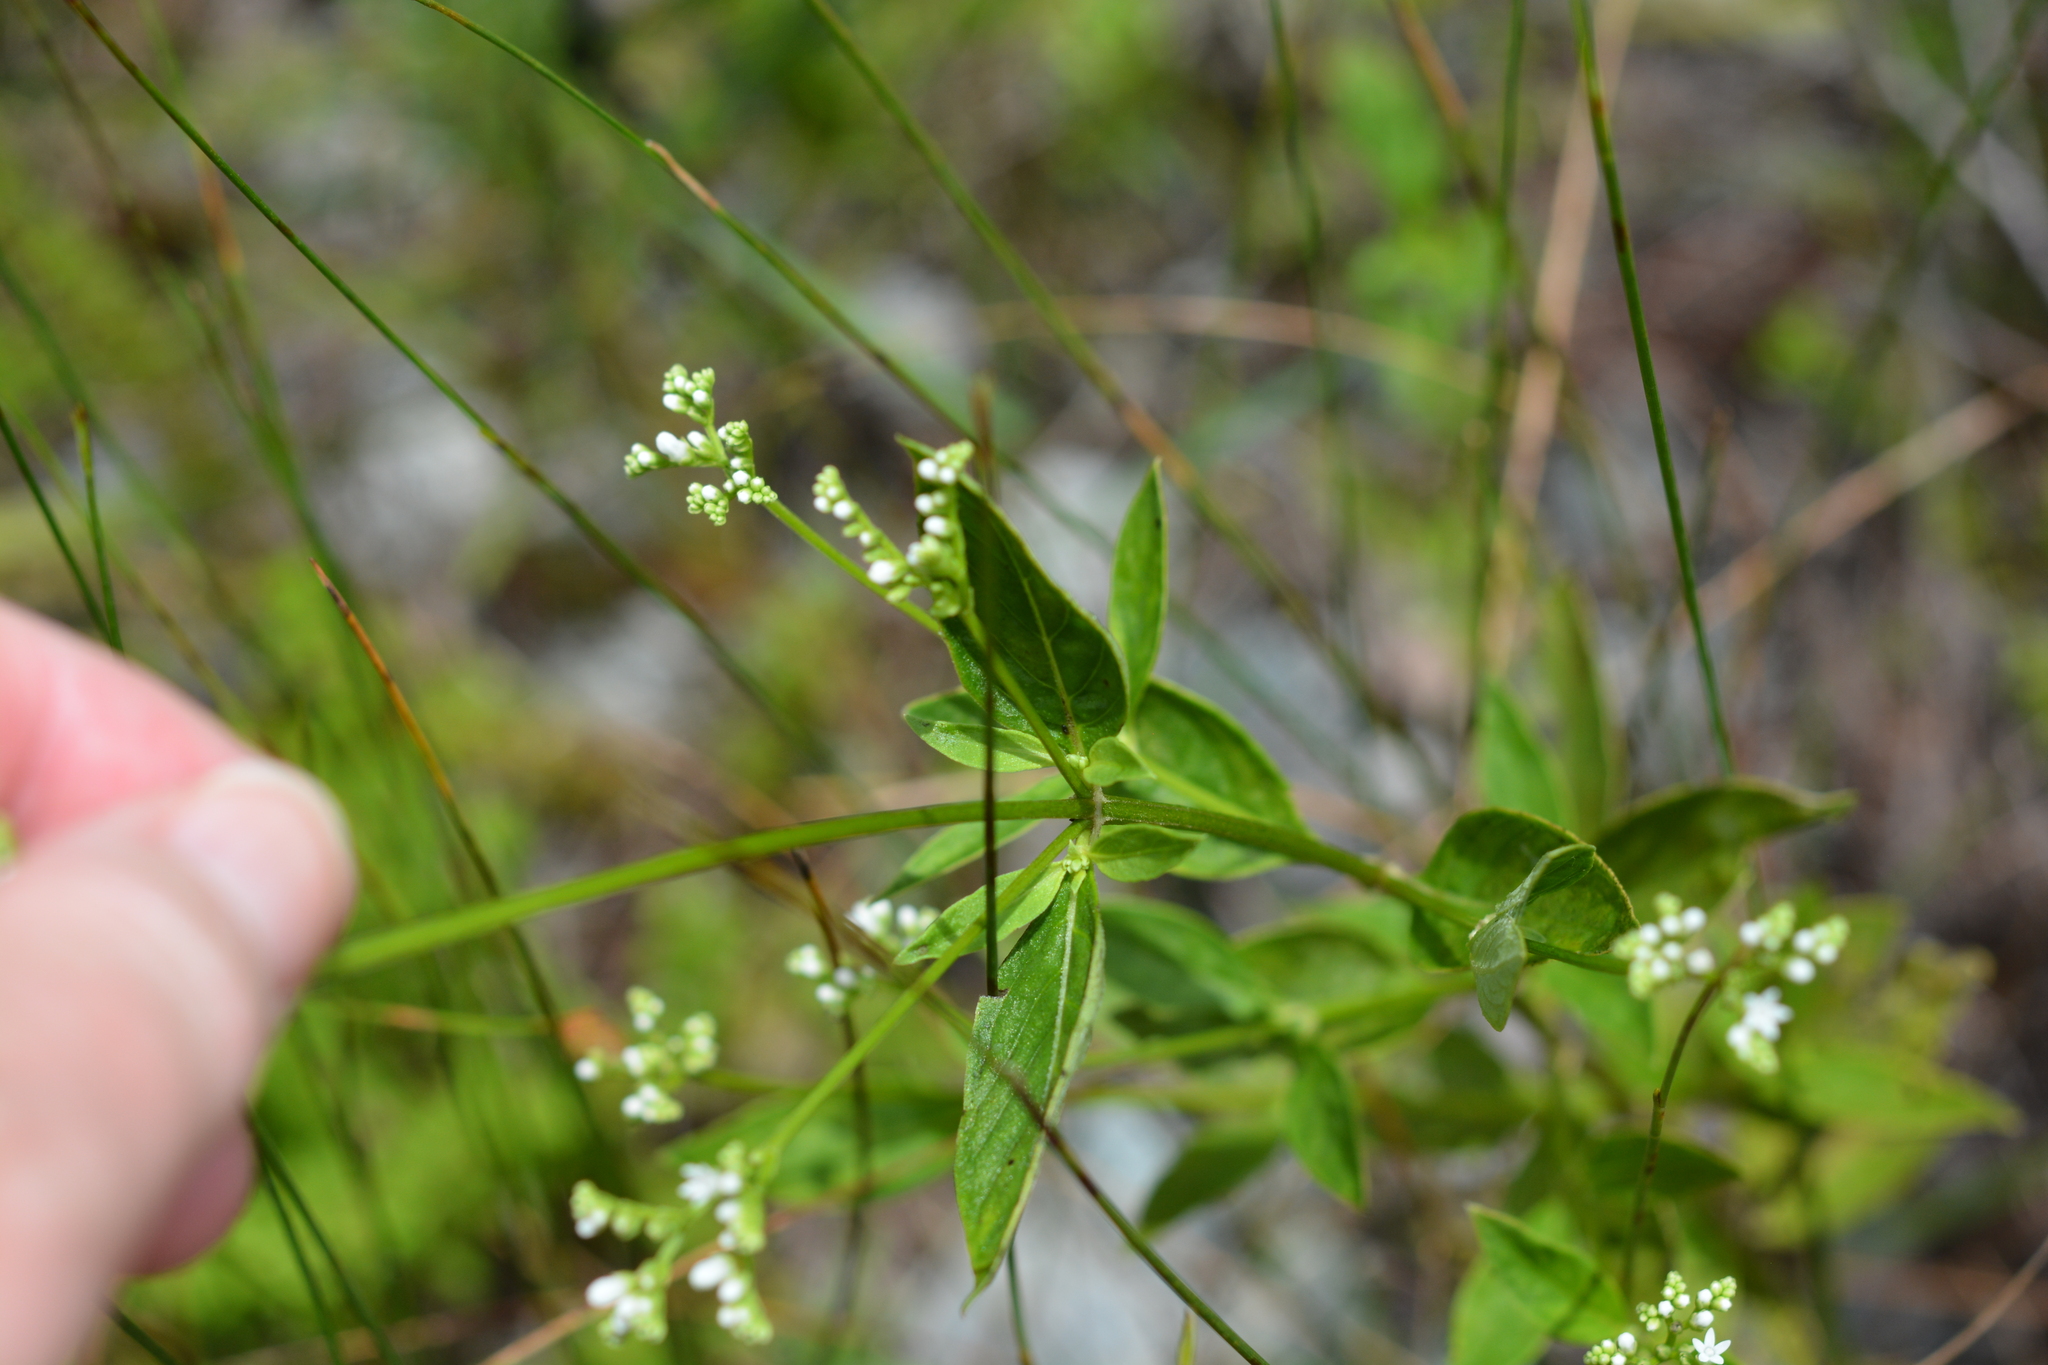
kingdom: Plantae
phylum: Tracheophyta
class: Magnoliopsida
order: Gentianales
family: Loganiaceae
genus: Mitreola
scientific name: Mitreola petiolata
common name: Lax hornpod
